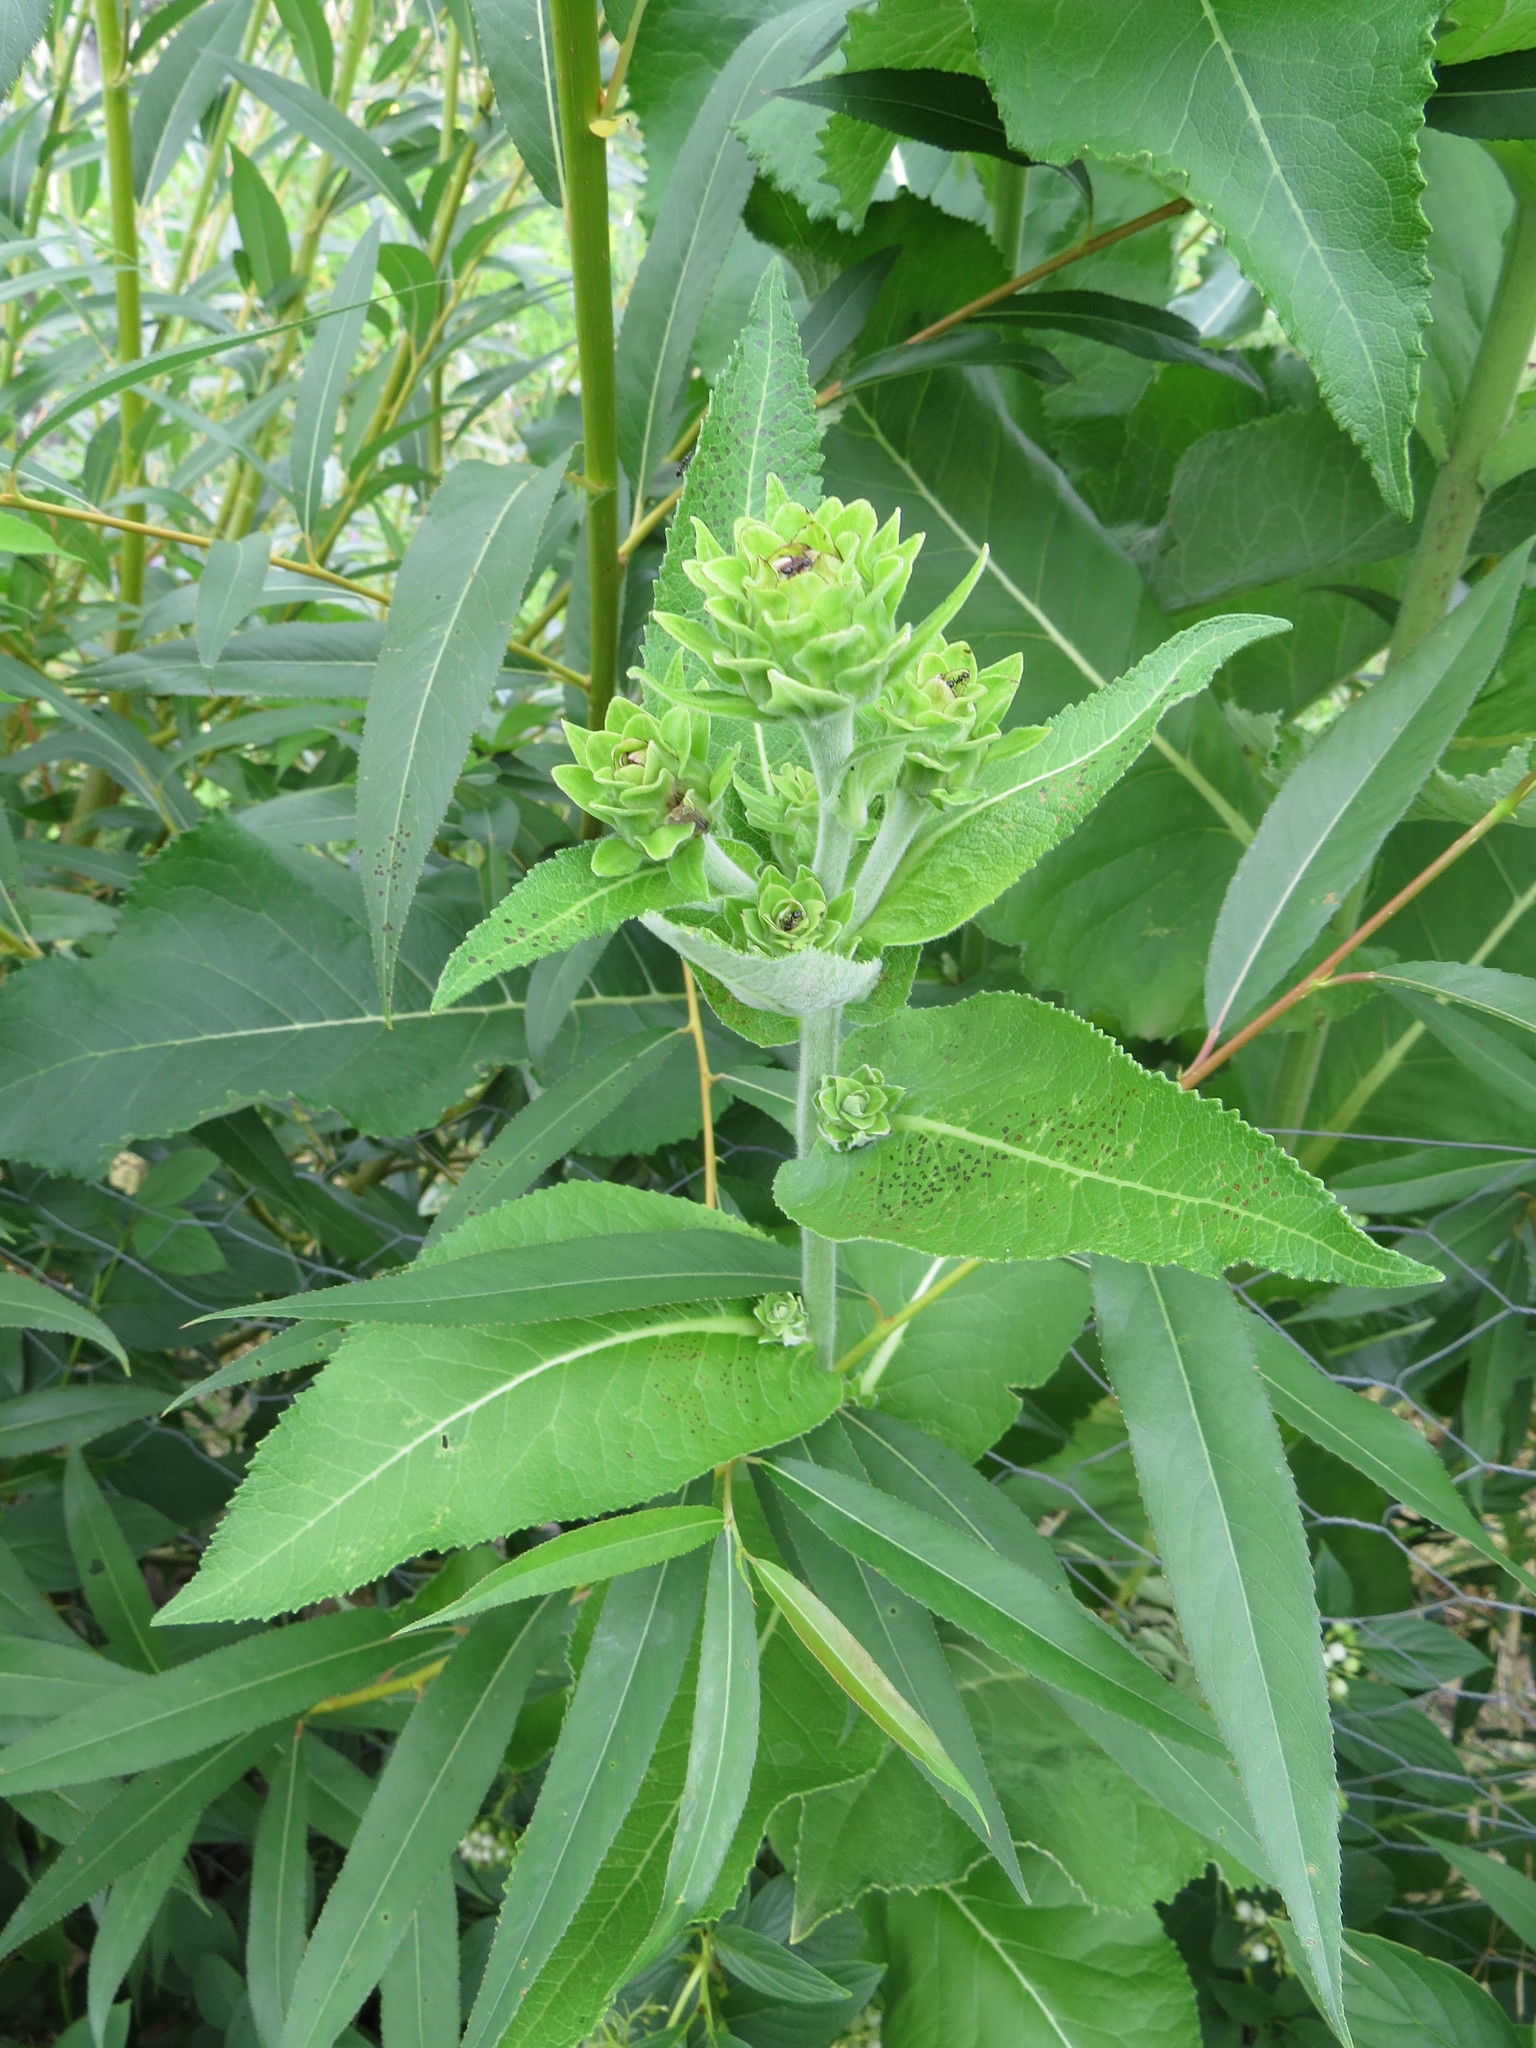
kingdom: Plantae
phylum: Tracheophyta
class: Magnoliopsida
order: Asterales
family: Asteraceae
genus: Inula
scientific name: Inula helenium
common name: Elecampane
